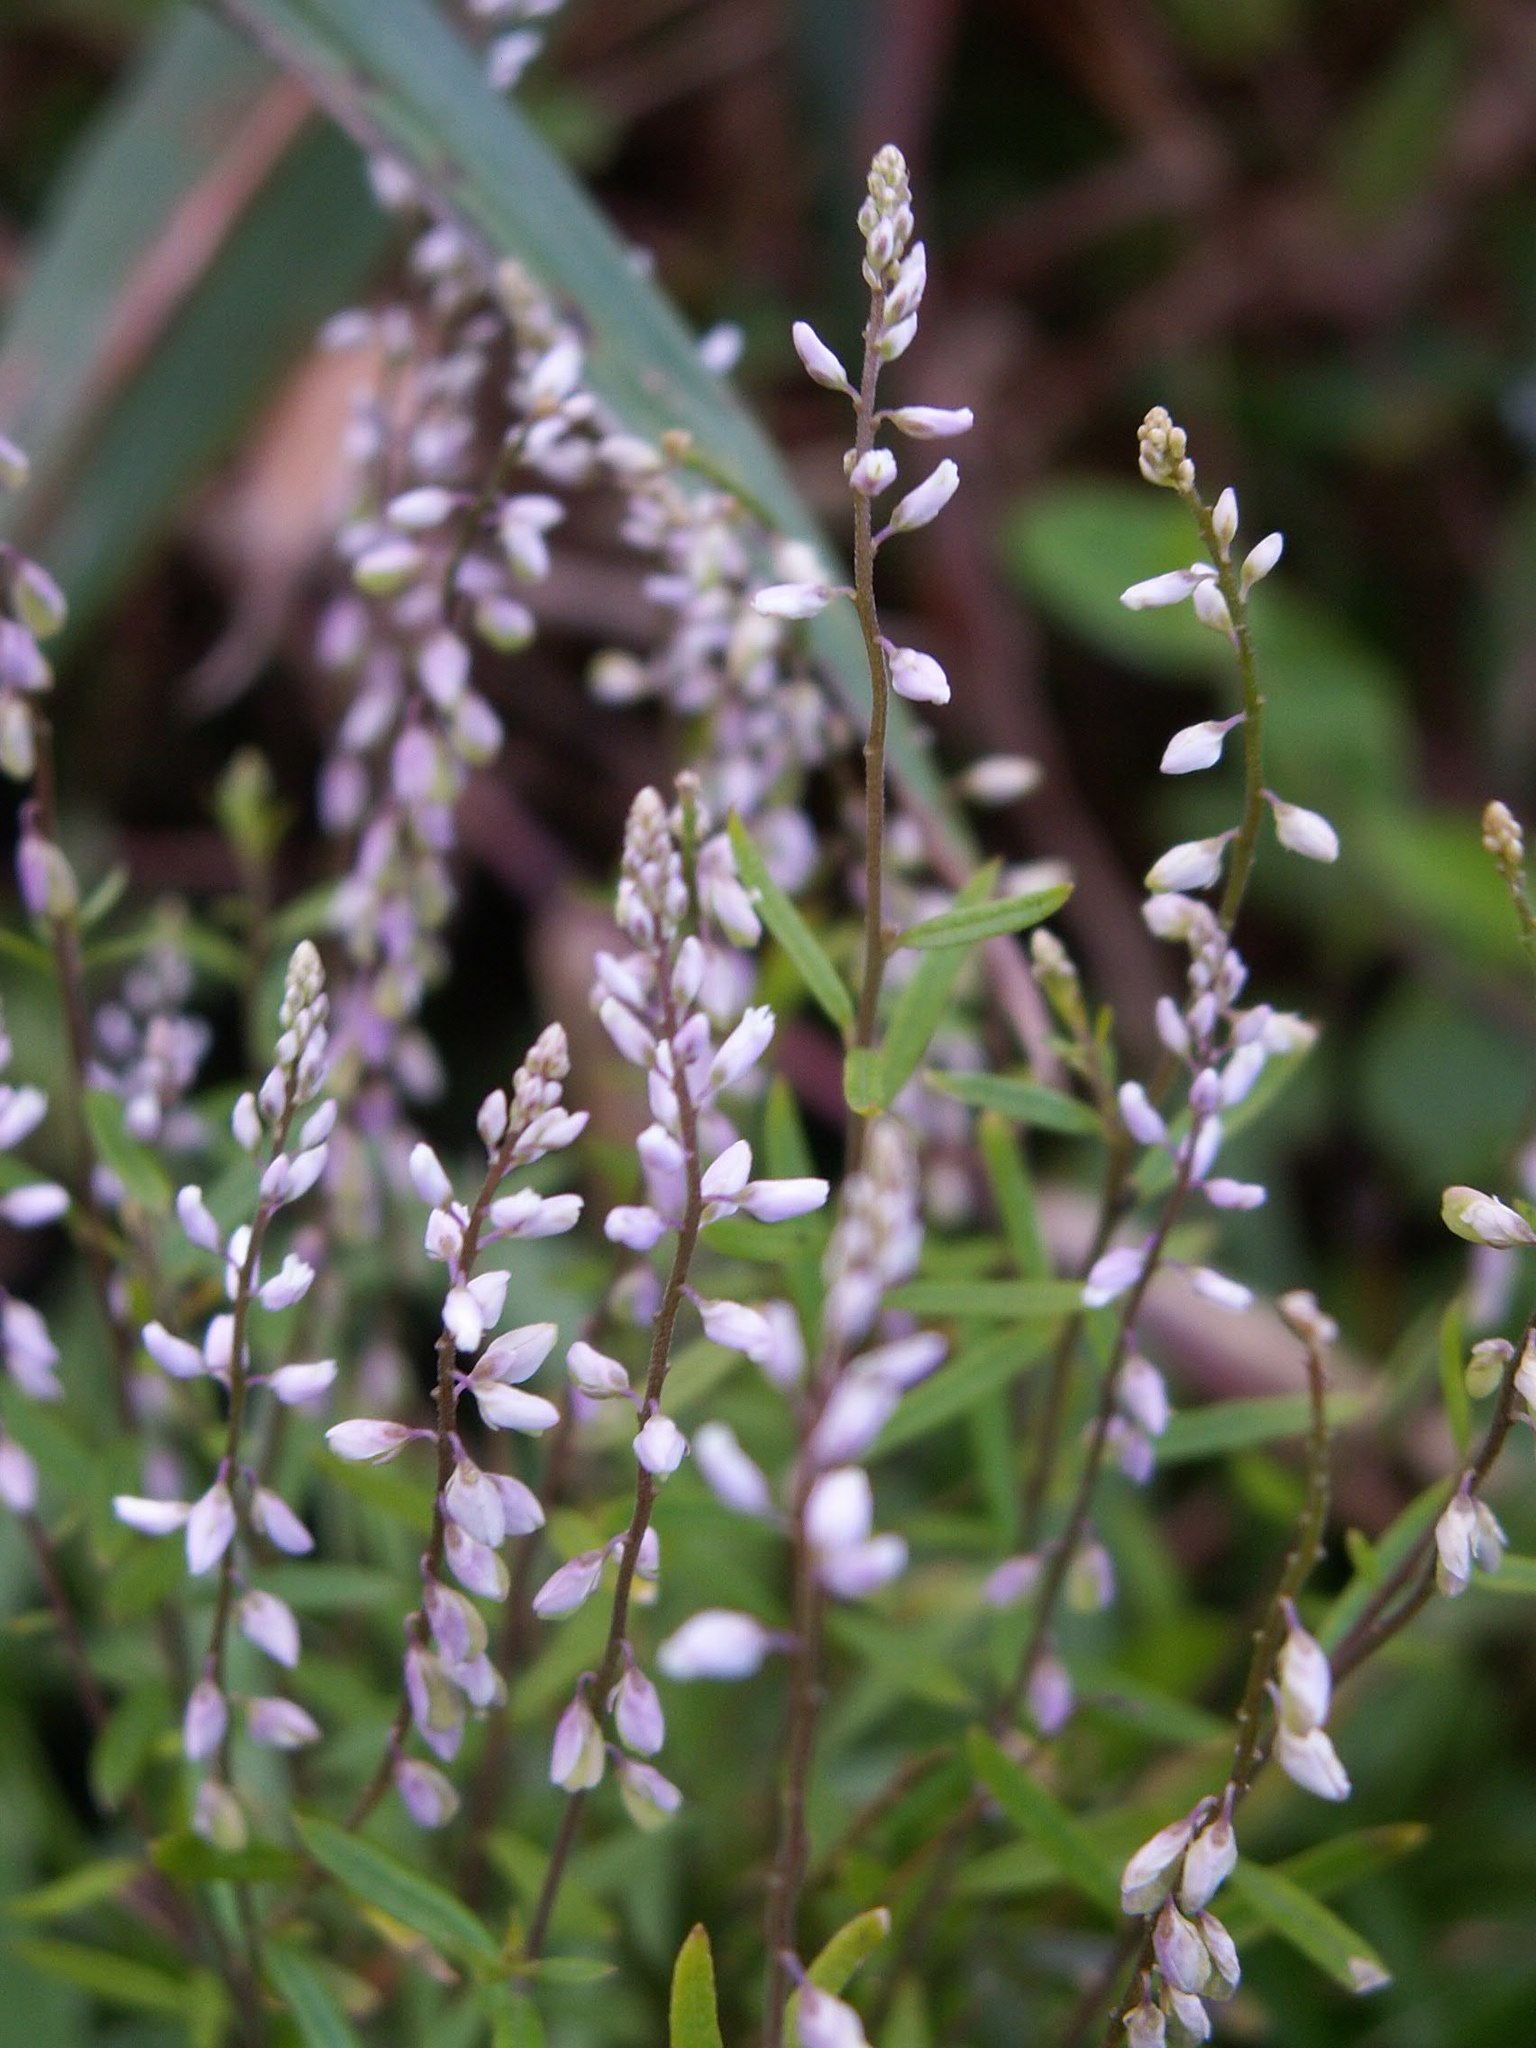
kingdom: Plantae
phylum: Tracheophyta
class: Magnoliopsida
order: Fabales
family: Polygalaceae
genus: Polygala
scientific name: Polygala paniculata
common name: Orosne
